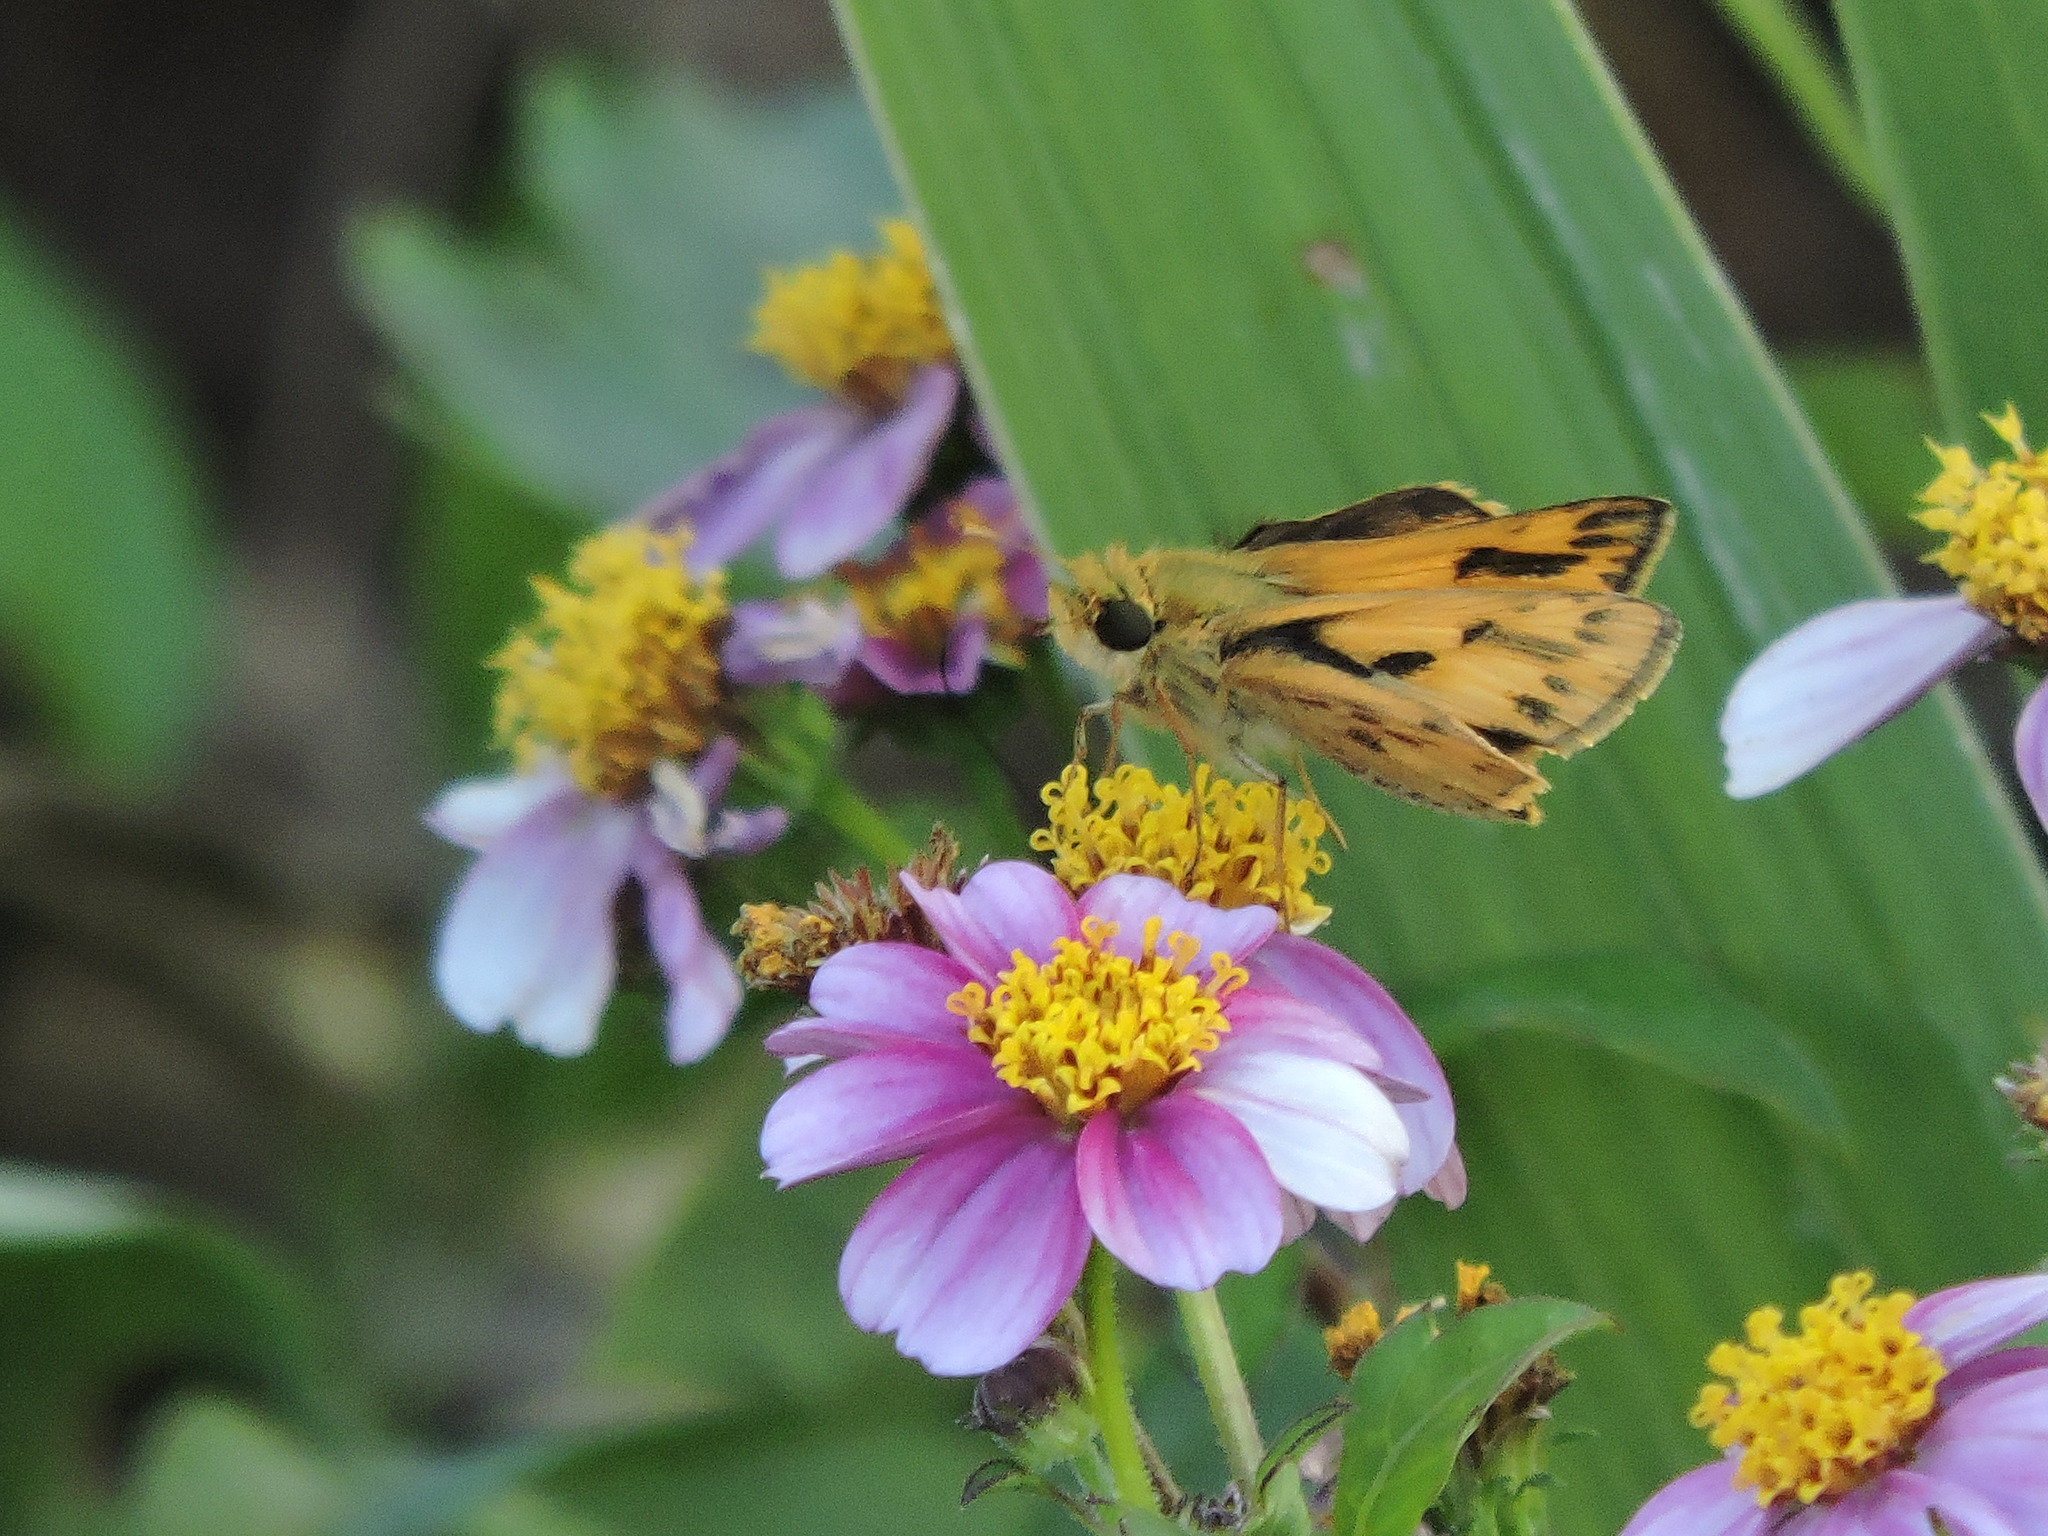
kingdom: Animalia
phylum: Arthropoda
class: Insecta
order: Lepidoptera
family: Hesperiidae
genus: Hylephila
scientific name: Hylephila phyleus
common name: Fiery skipper
